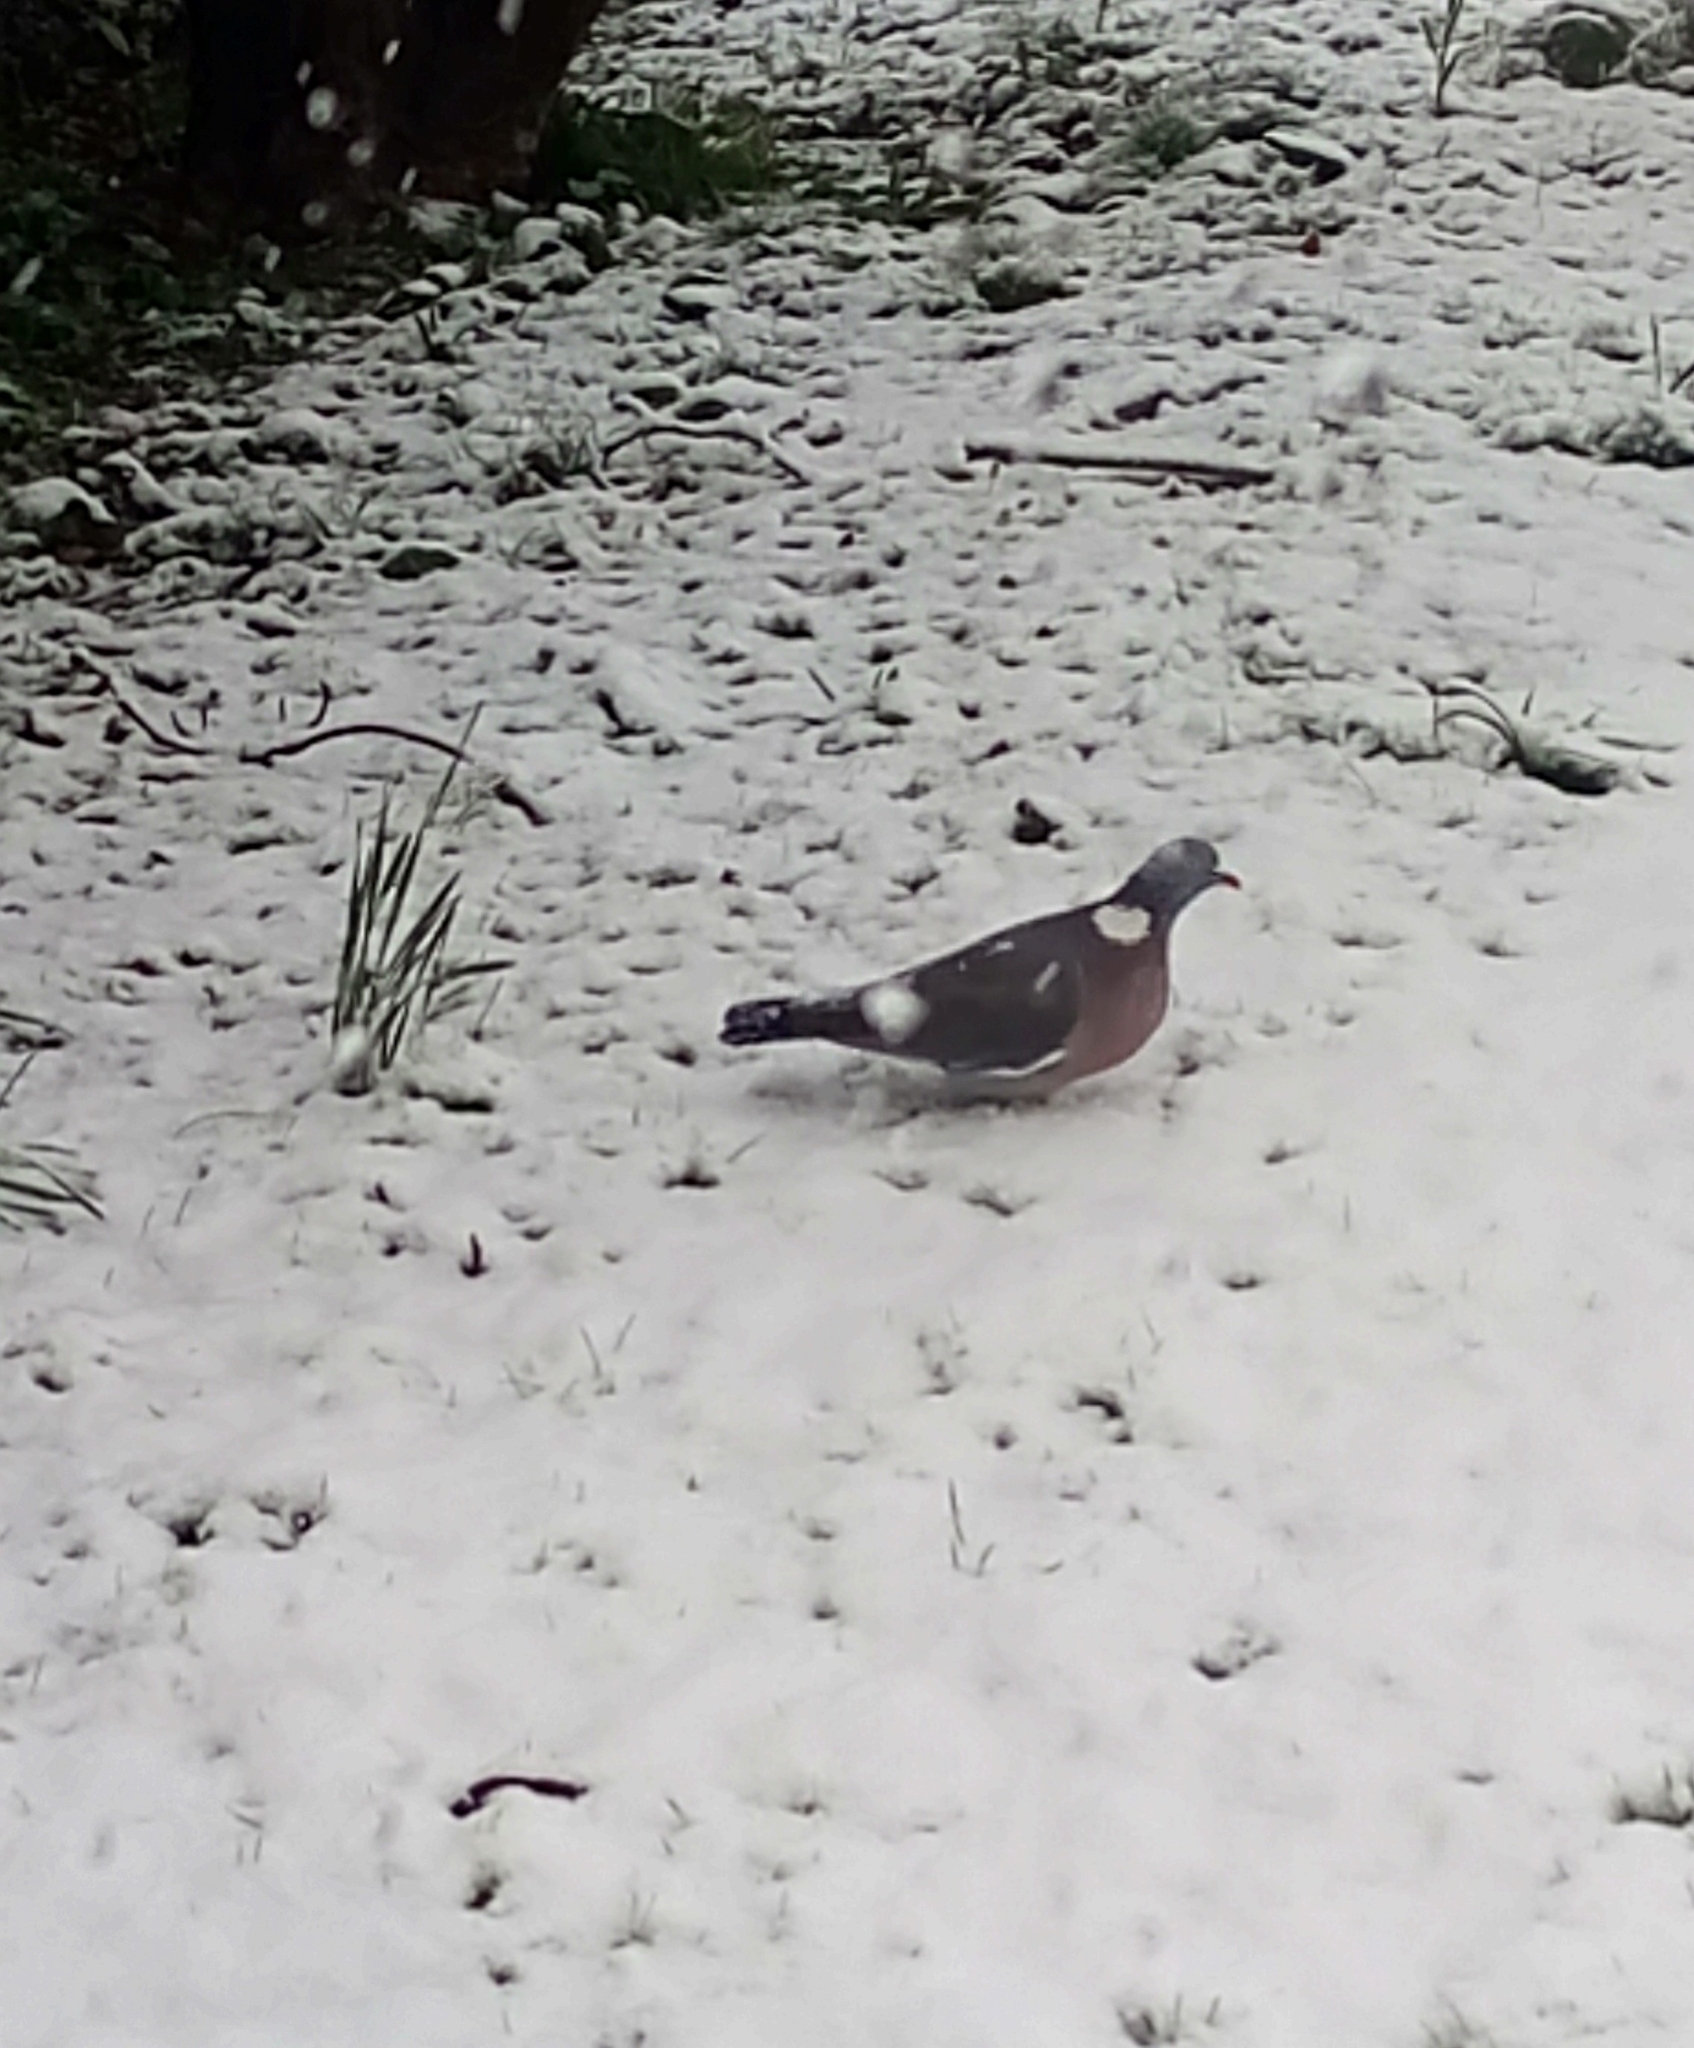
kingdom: Animalia
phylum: Chordata
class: Aves
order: Columbiformes
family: Columbidae
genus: Columba
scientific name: Columba palumbus
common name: Common wood pigeon
